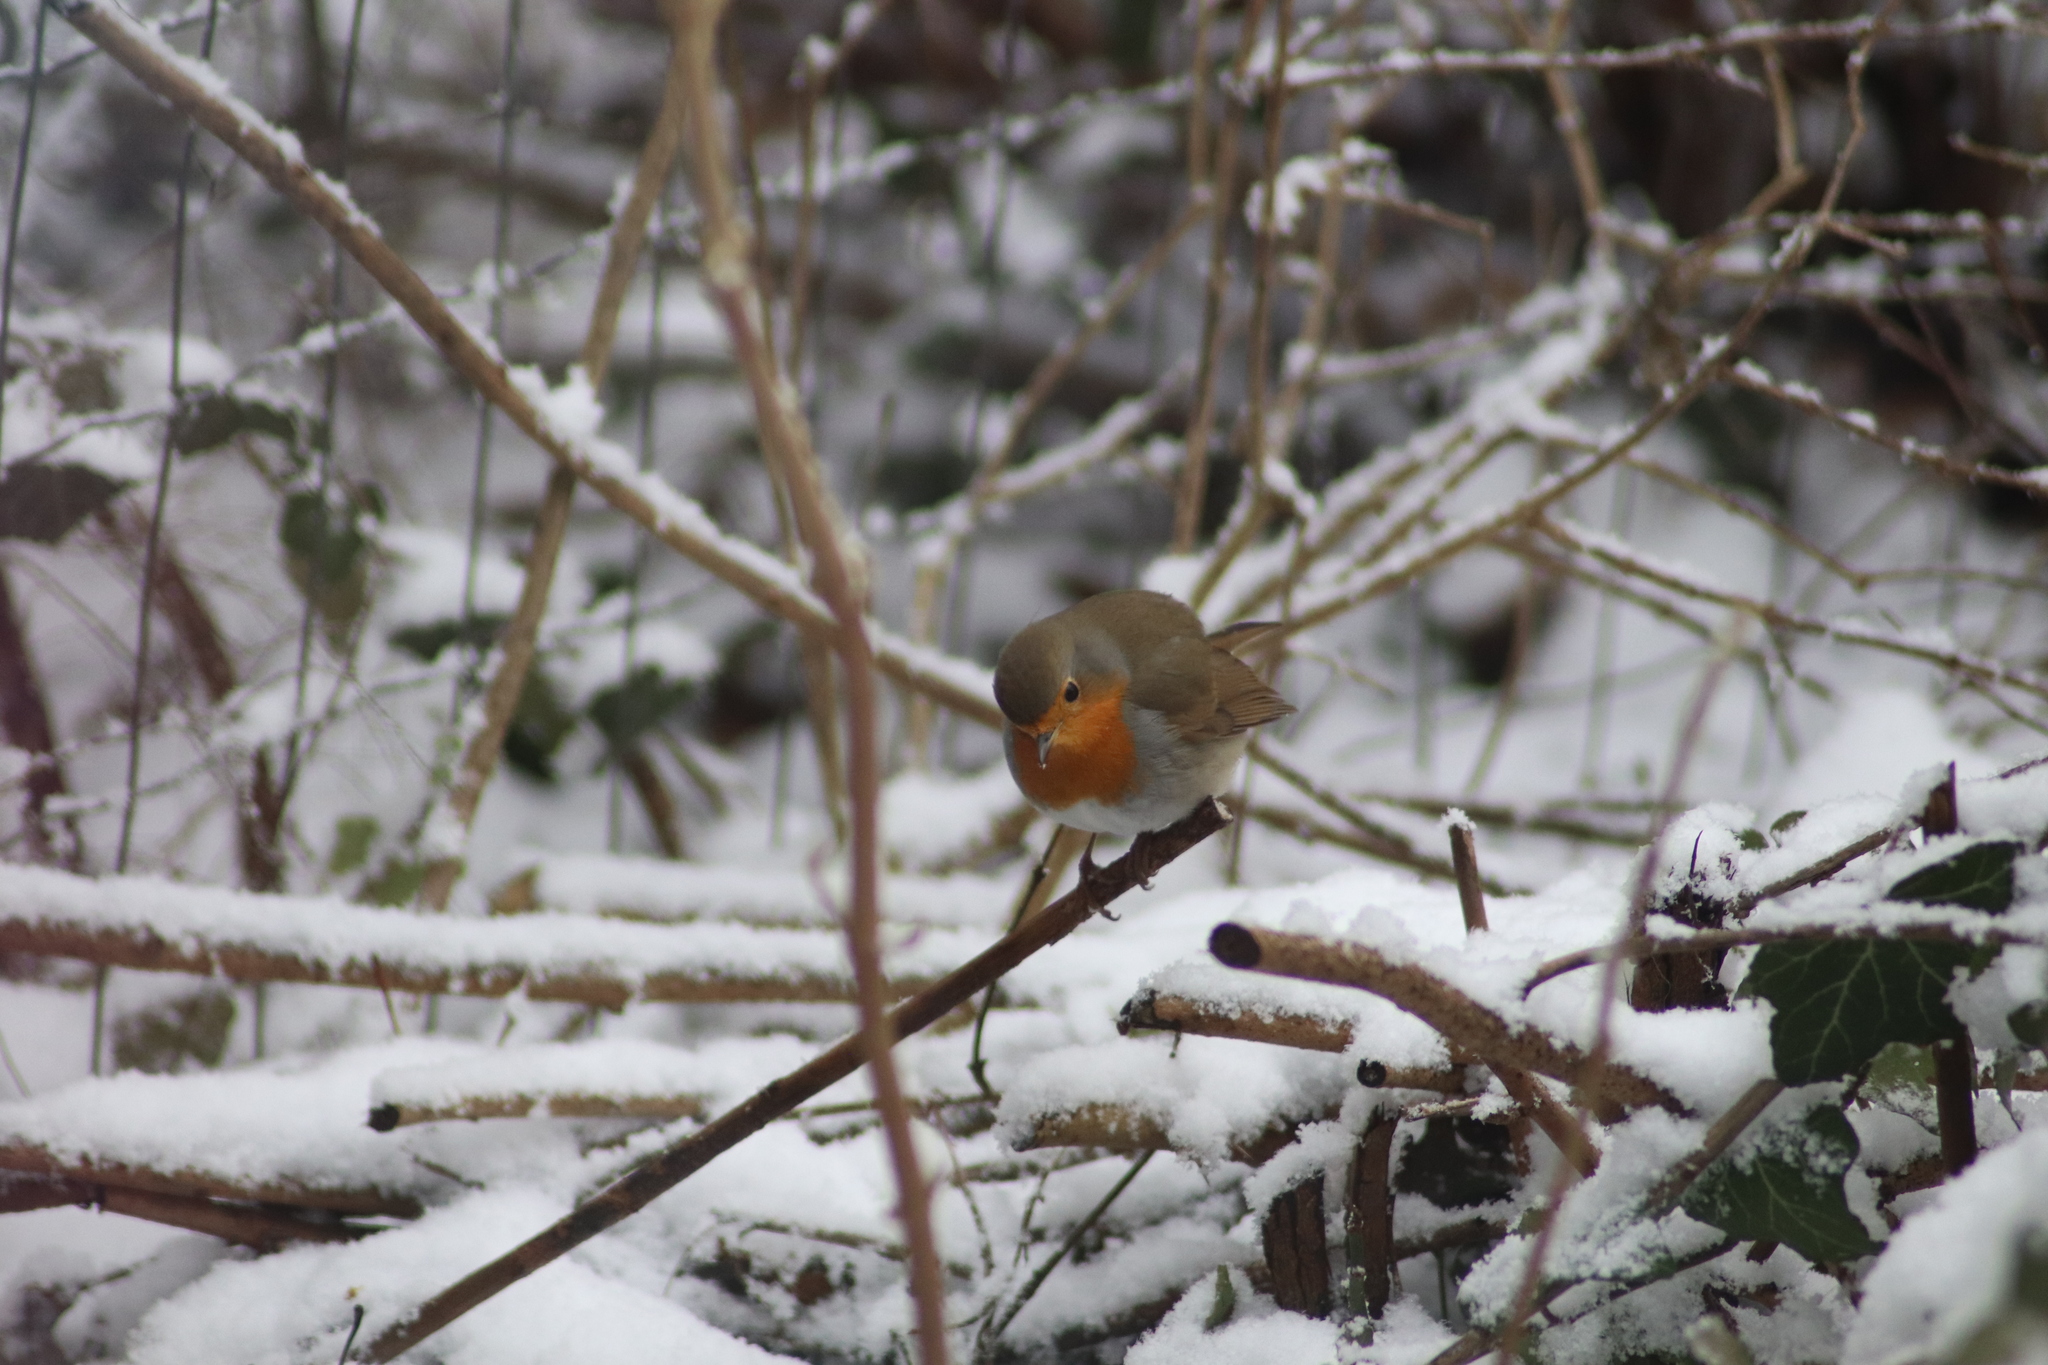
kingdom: Animalia
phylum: Chordata
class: Aves
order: Passeriformes
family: Muscicapidae
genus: Erithacus
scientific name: Erithacus rubecula
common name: European robin
